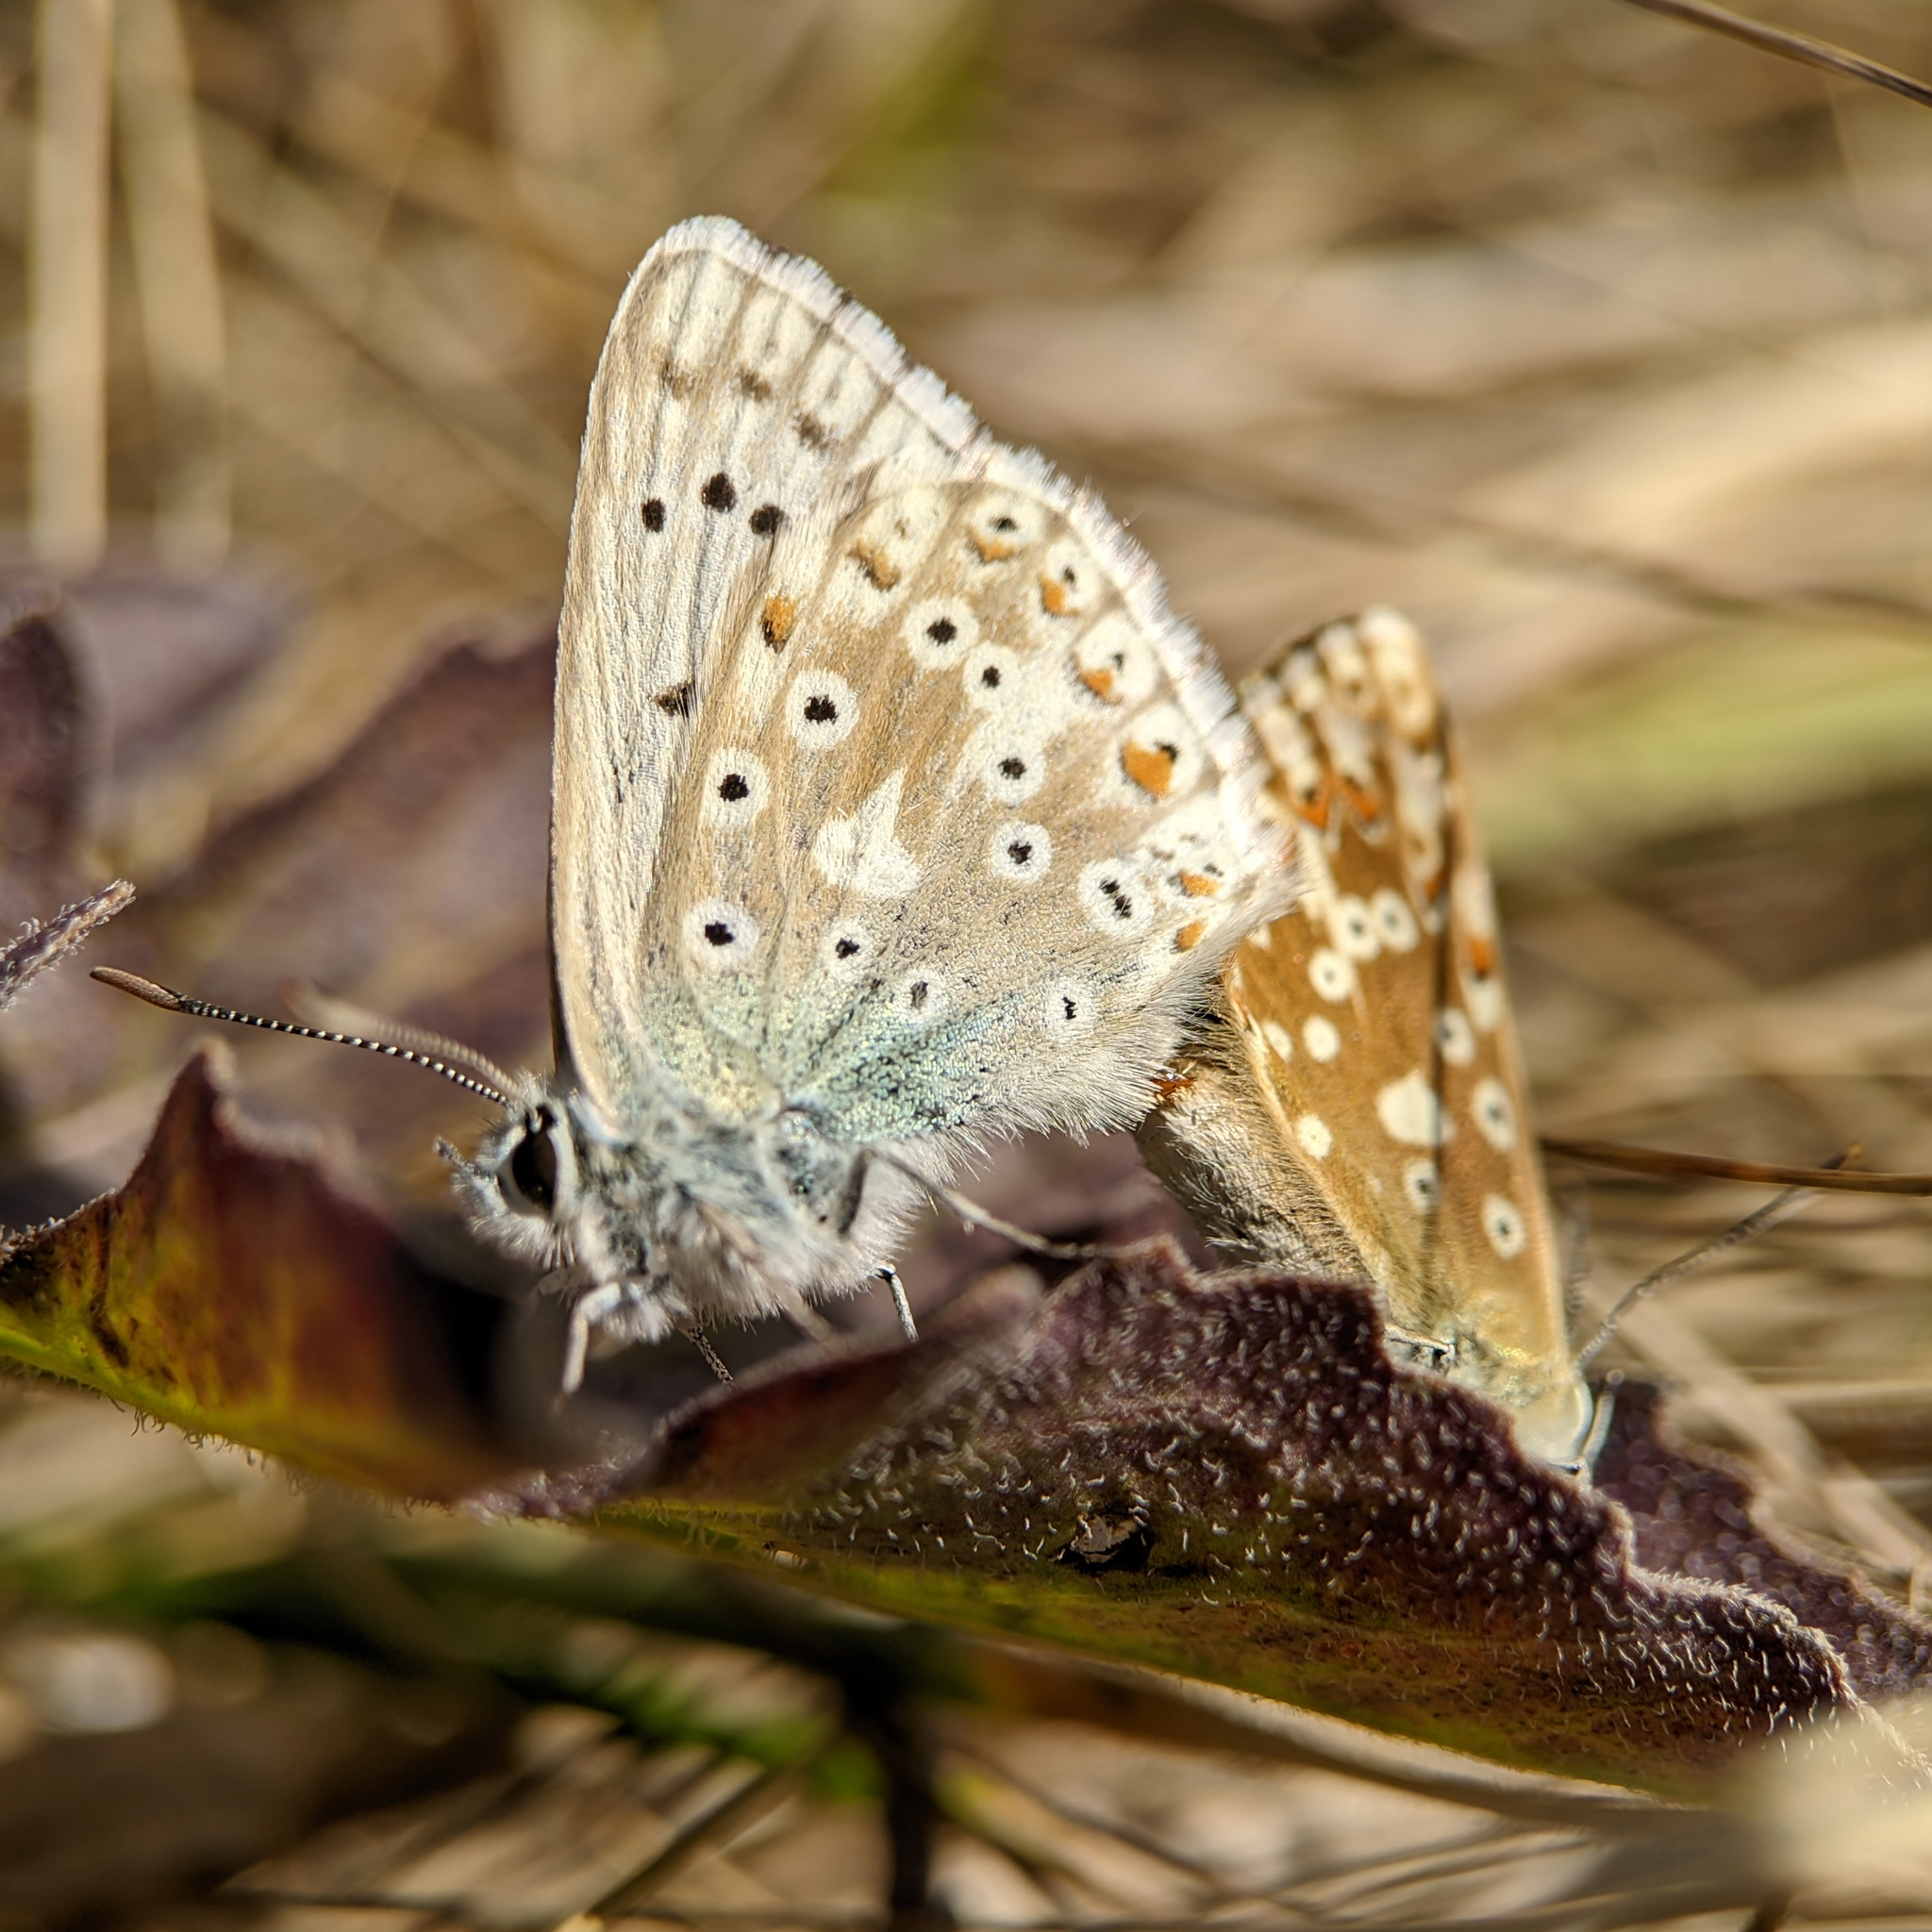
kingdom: Animalia
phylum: Arthropoda
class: Insecta
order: Lepidoptera
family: Lycaenidae
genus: Lysandra
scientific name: Lysandra coridon
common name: Chalkhill blue
